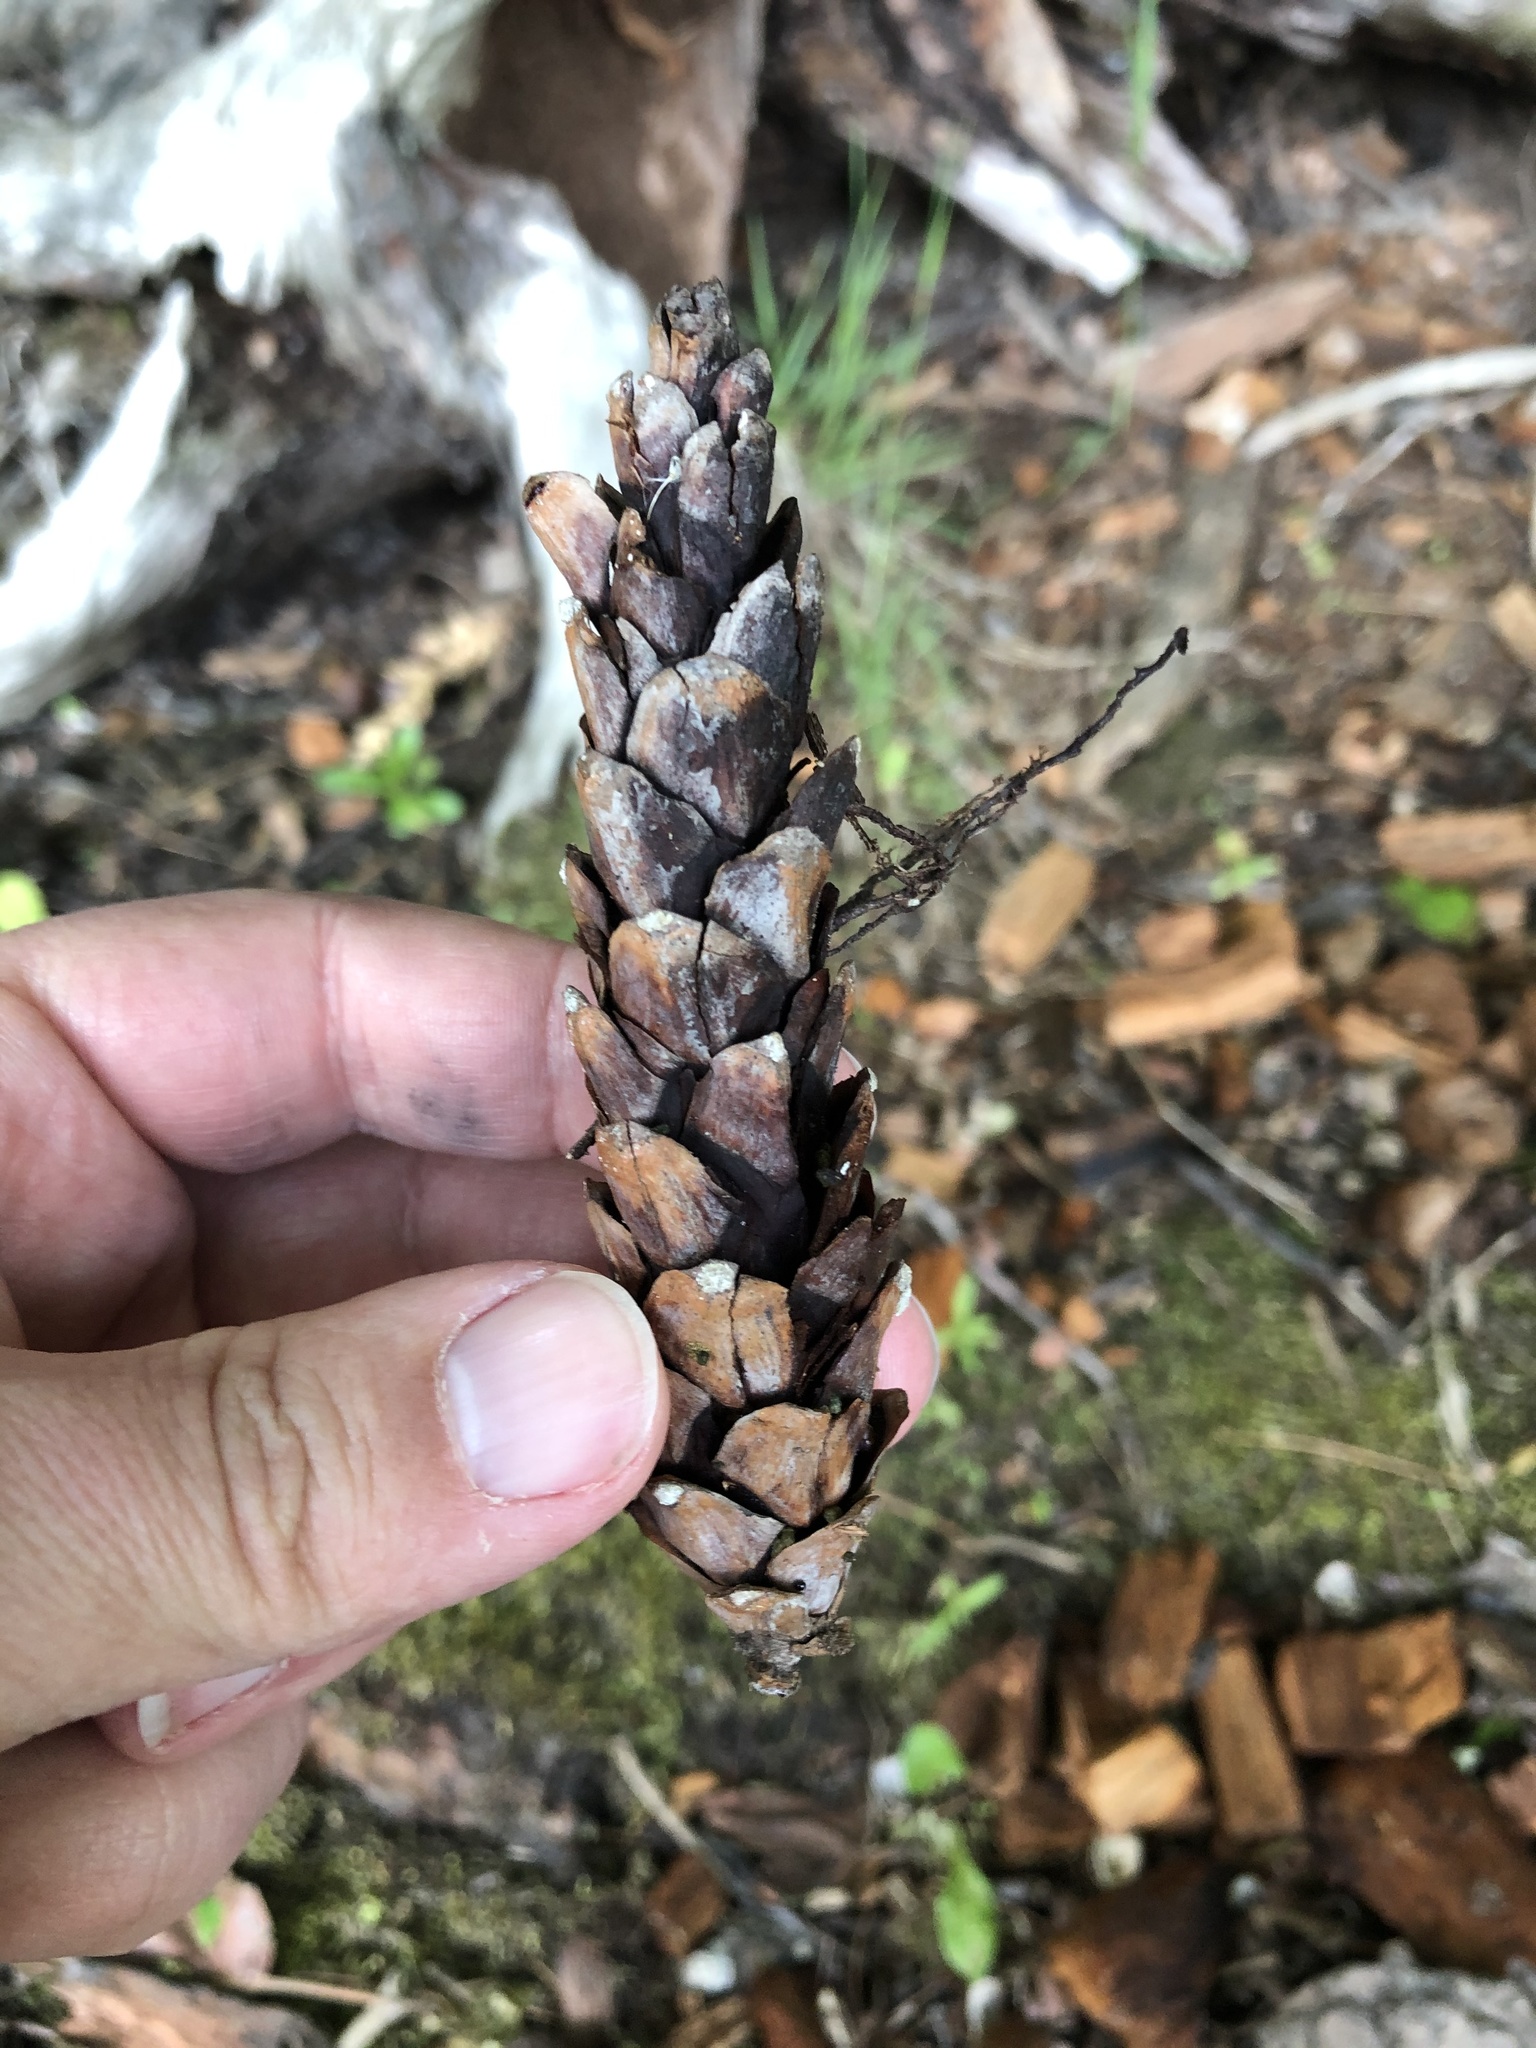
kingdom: Plantae
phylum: Tracheophyta
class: Pinopsida
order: Pinales
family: Pinaceae
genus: Pinus
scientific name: Pinus strobus
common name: Weymouth pine
